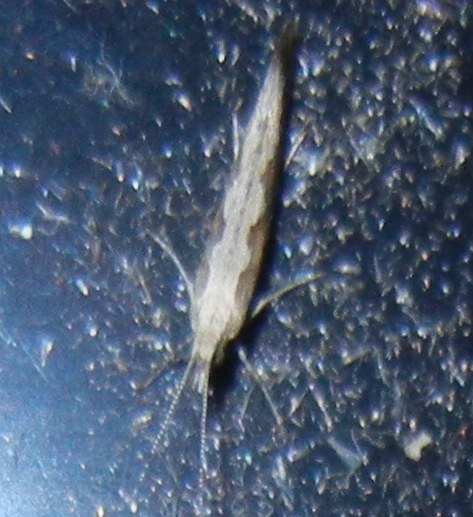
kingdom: Animalia
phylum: Arthropoda
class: Insecta
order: Lepidoptera
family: Plutellidae
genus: Plutella
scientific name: Plutella xylostella
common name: Diamond-back moth
